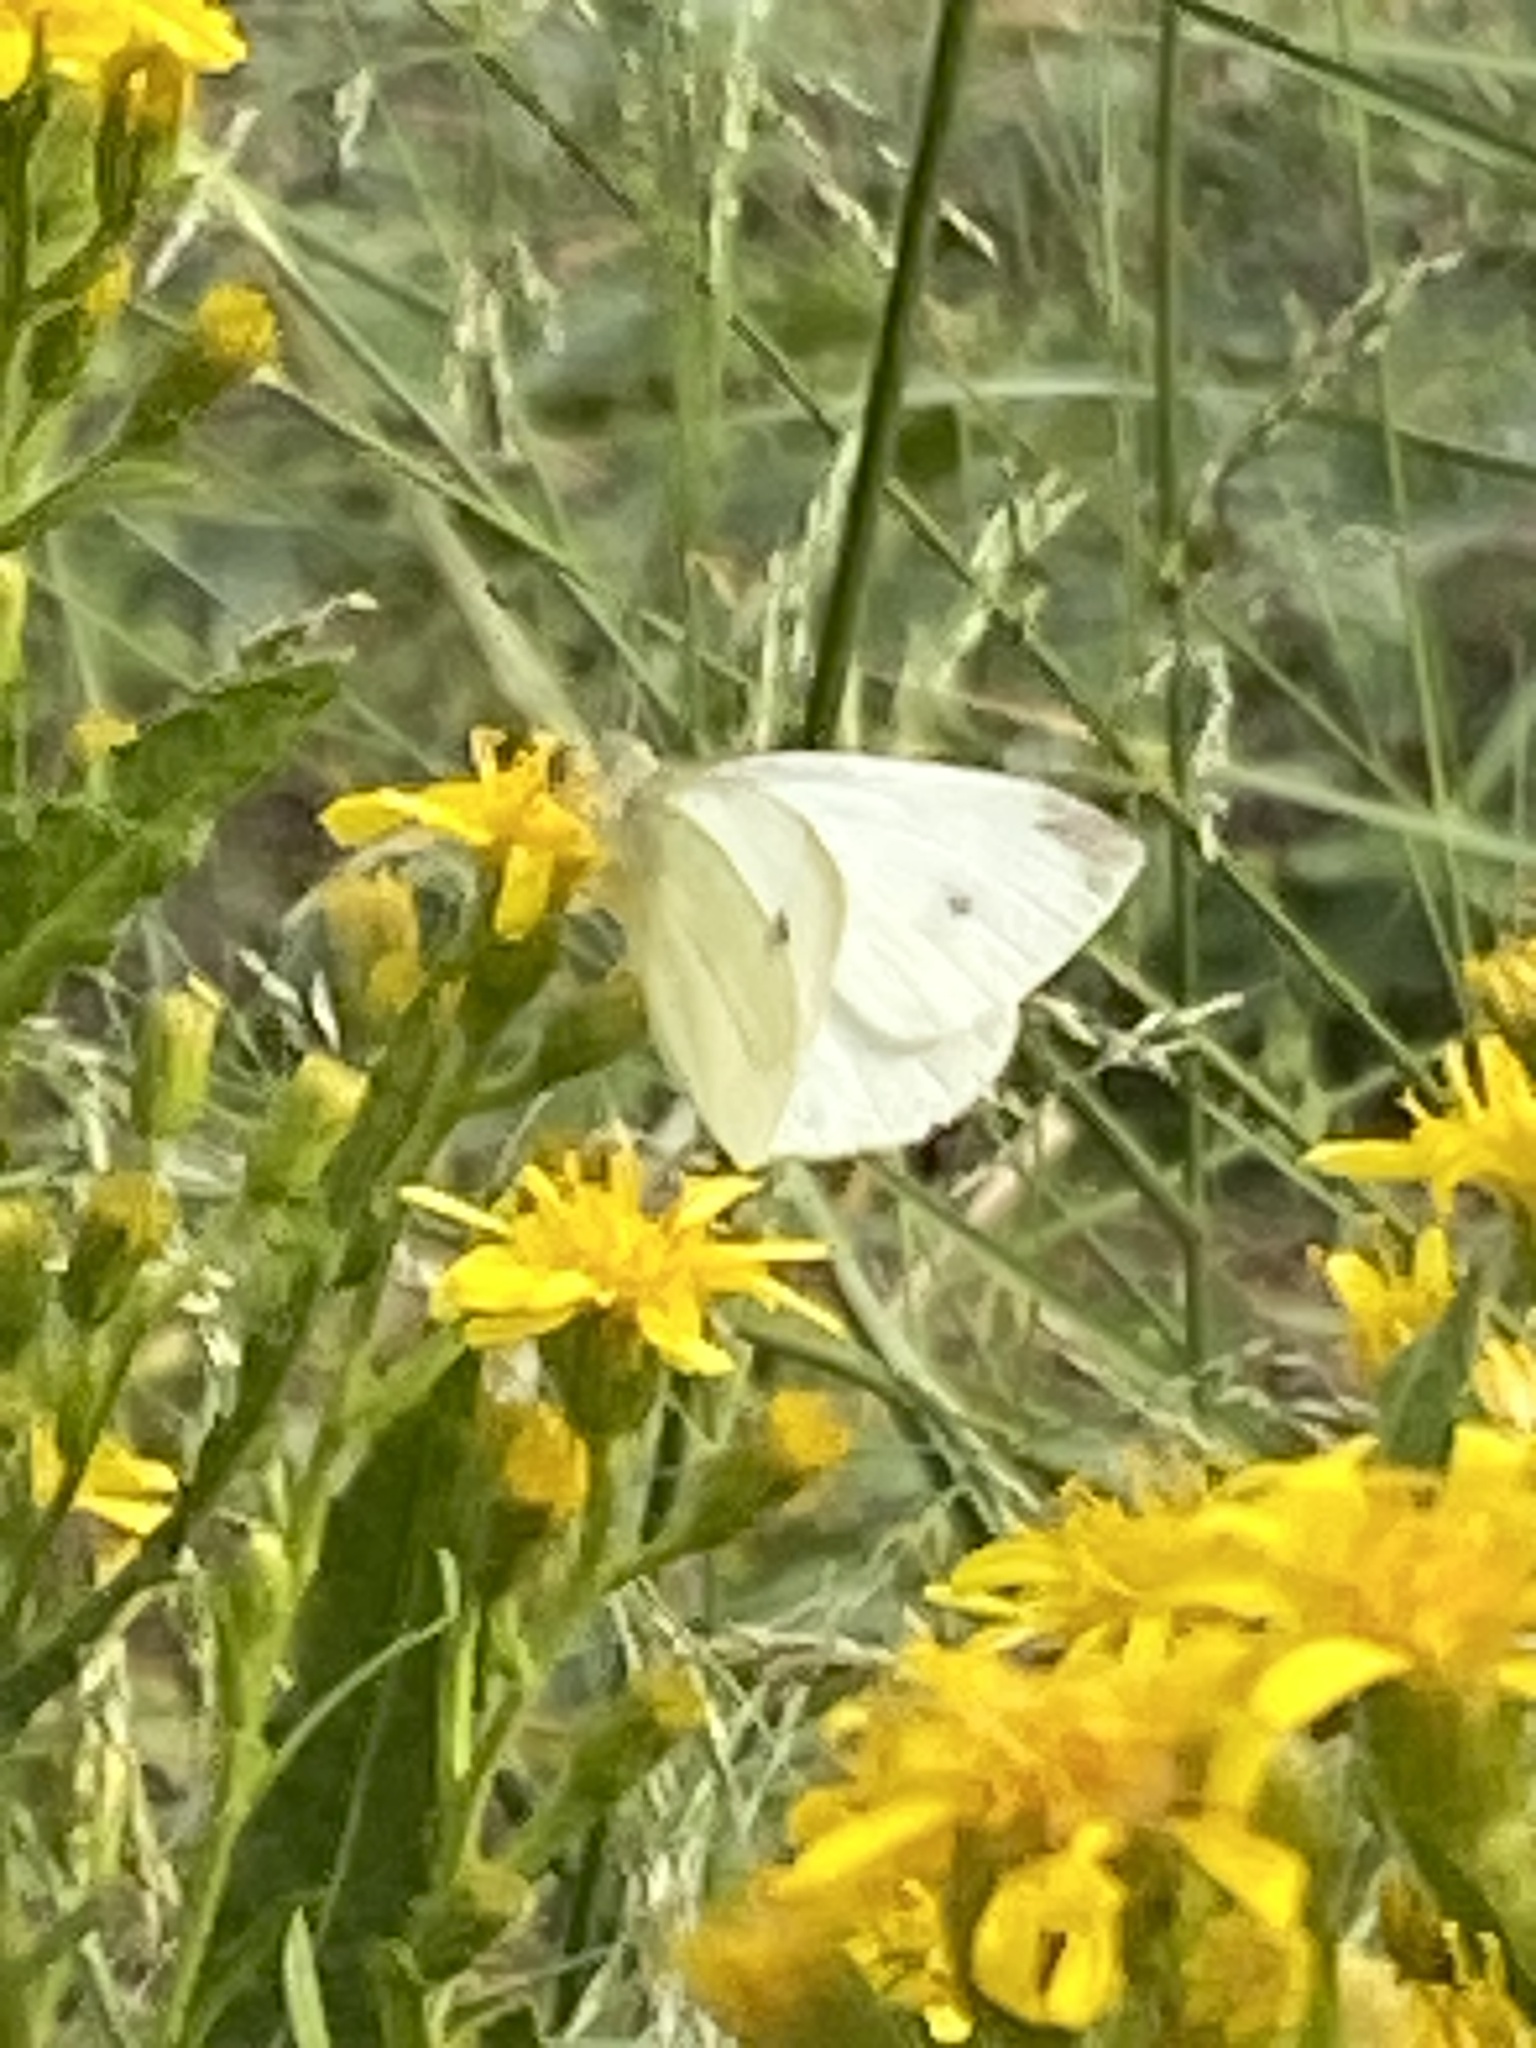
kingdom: Animalia
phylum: Arthropoda
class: Insecta
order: Lepidoptera
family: Pieridae
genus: Pieris
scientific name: Pieris rapae
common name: Small white
